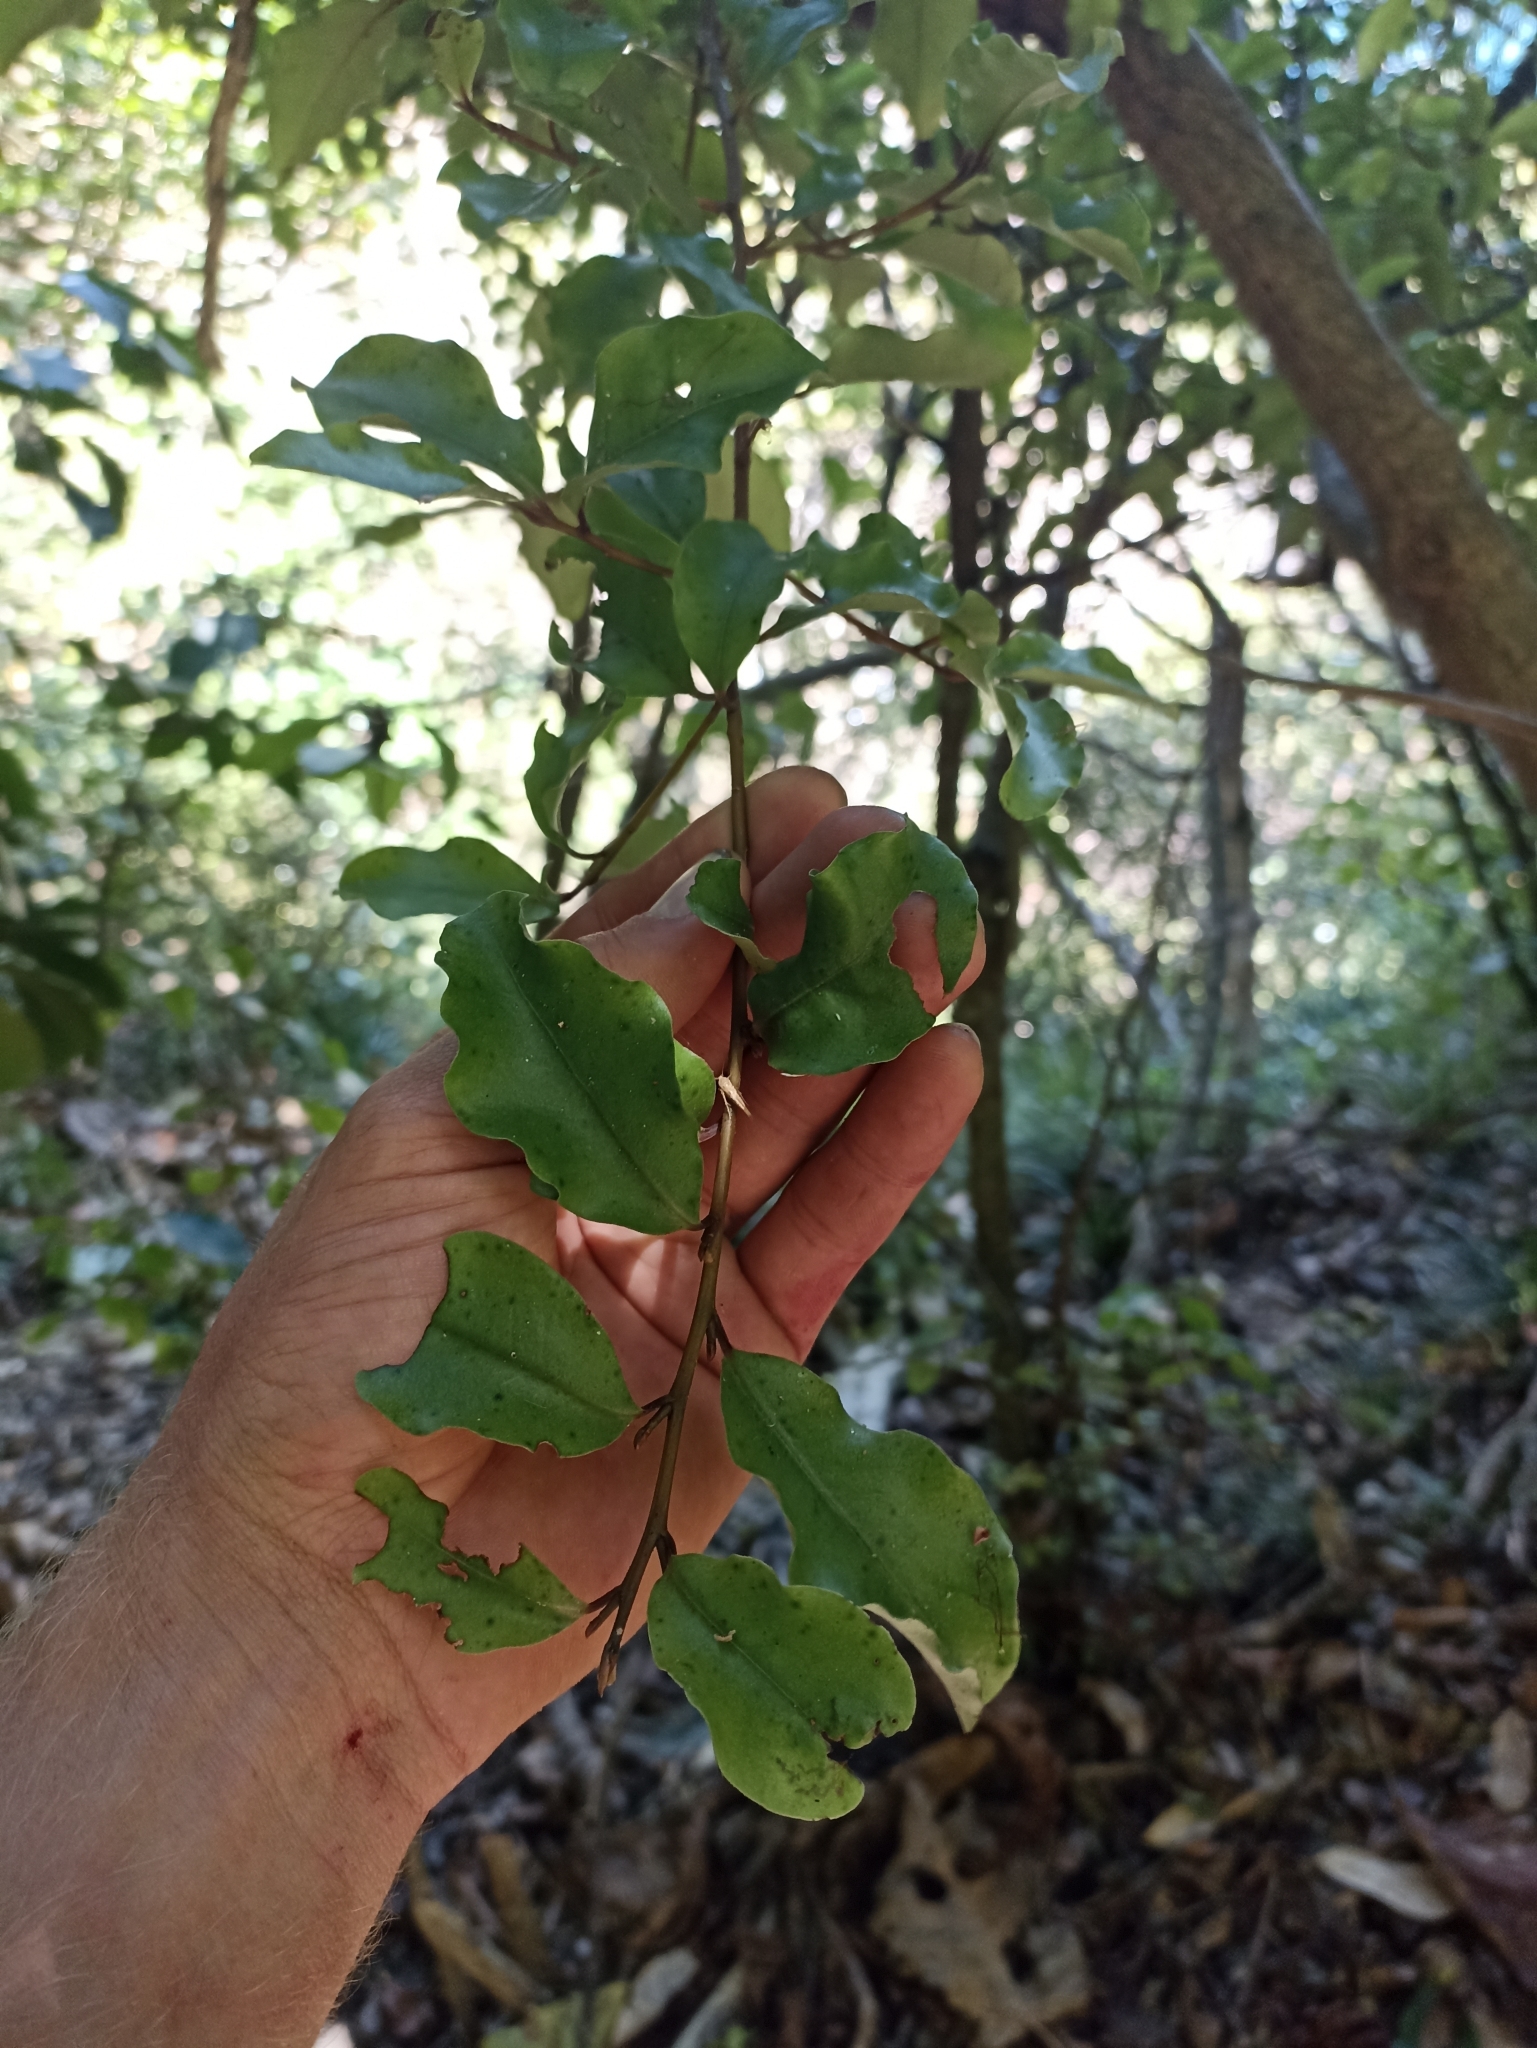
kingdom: Plantae
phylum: Tracheophyta
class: Magnoliopsida
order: Ericales
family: Primulaceae
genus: Myrsine
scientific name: Myrsine australis
